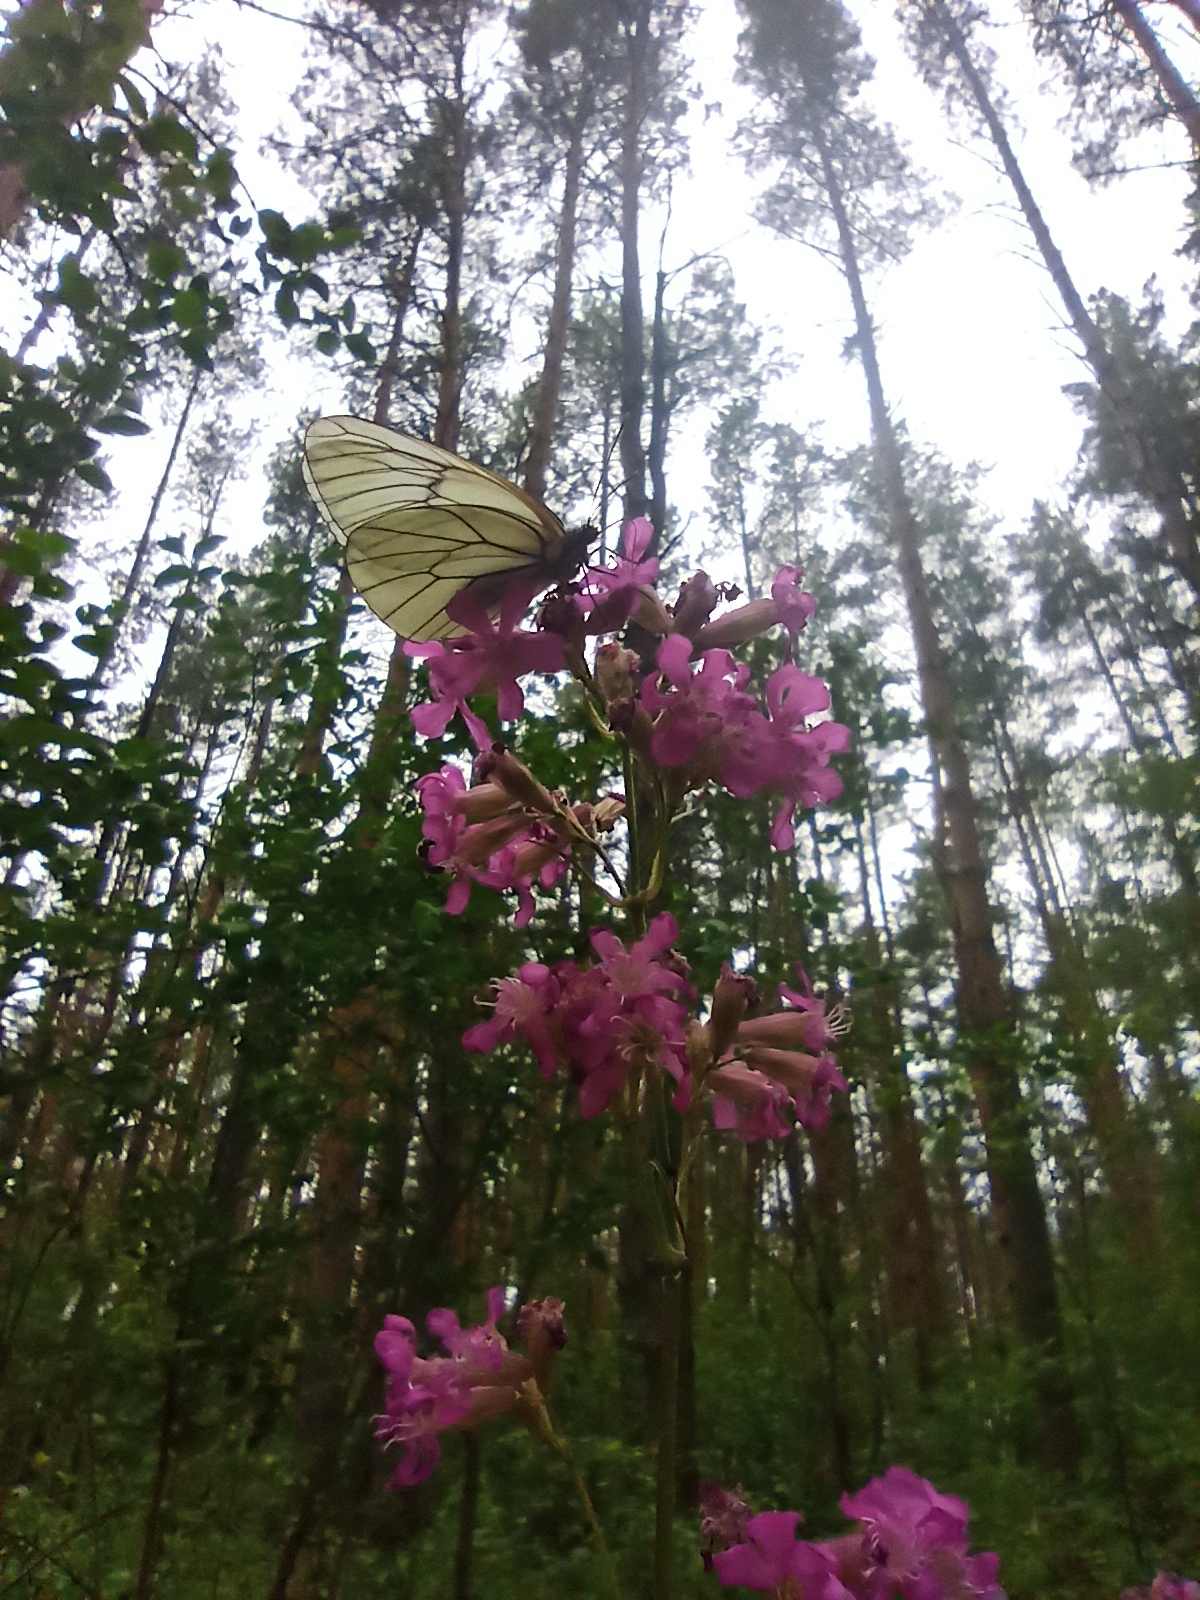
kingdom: Animalia
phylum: Arthropoda
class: Insecta
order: Lepidoptera
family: Pieridae
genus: Aporia
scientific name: Aporia crataegi
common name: Black-veined white
